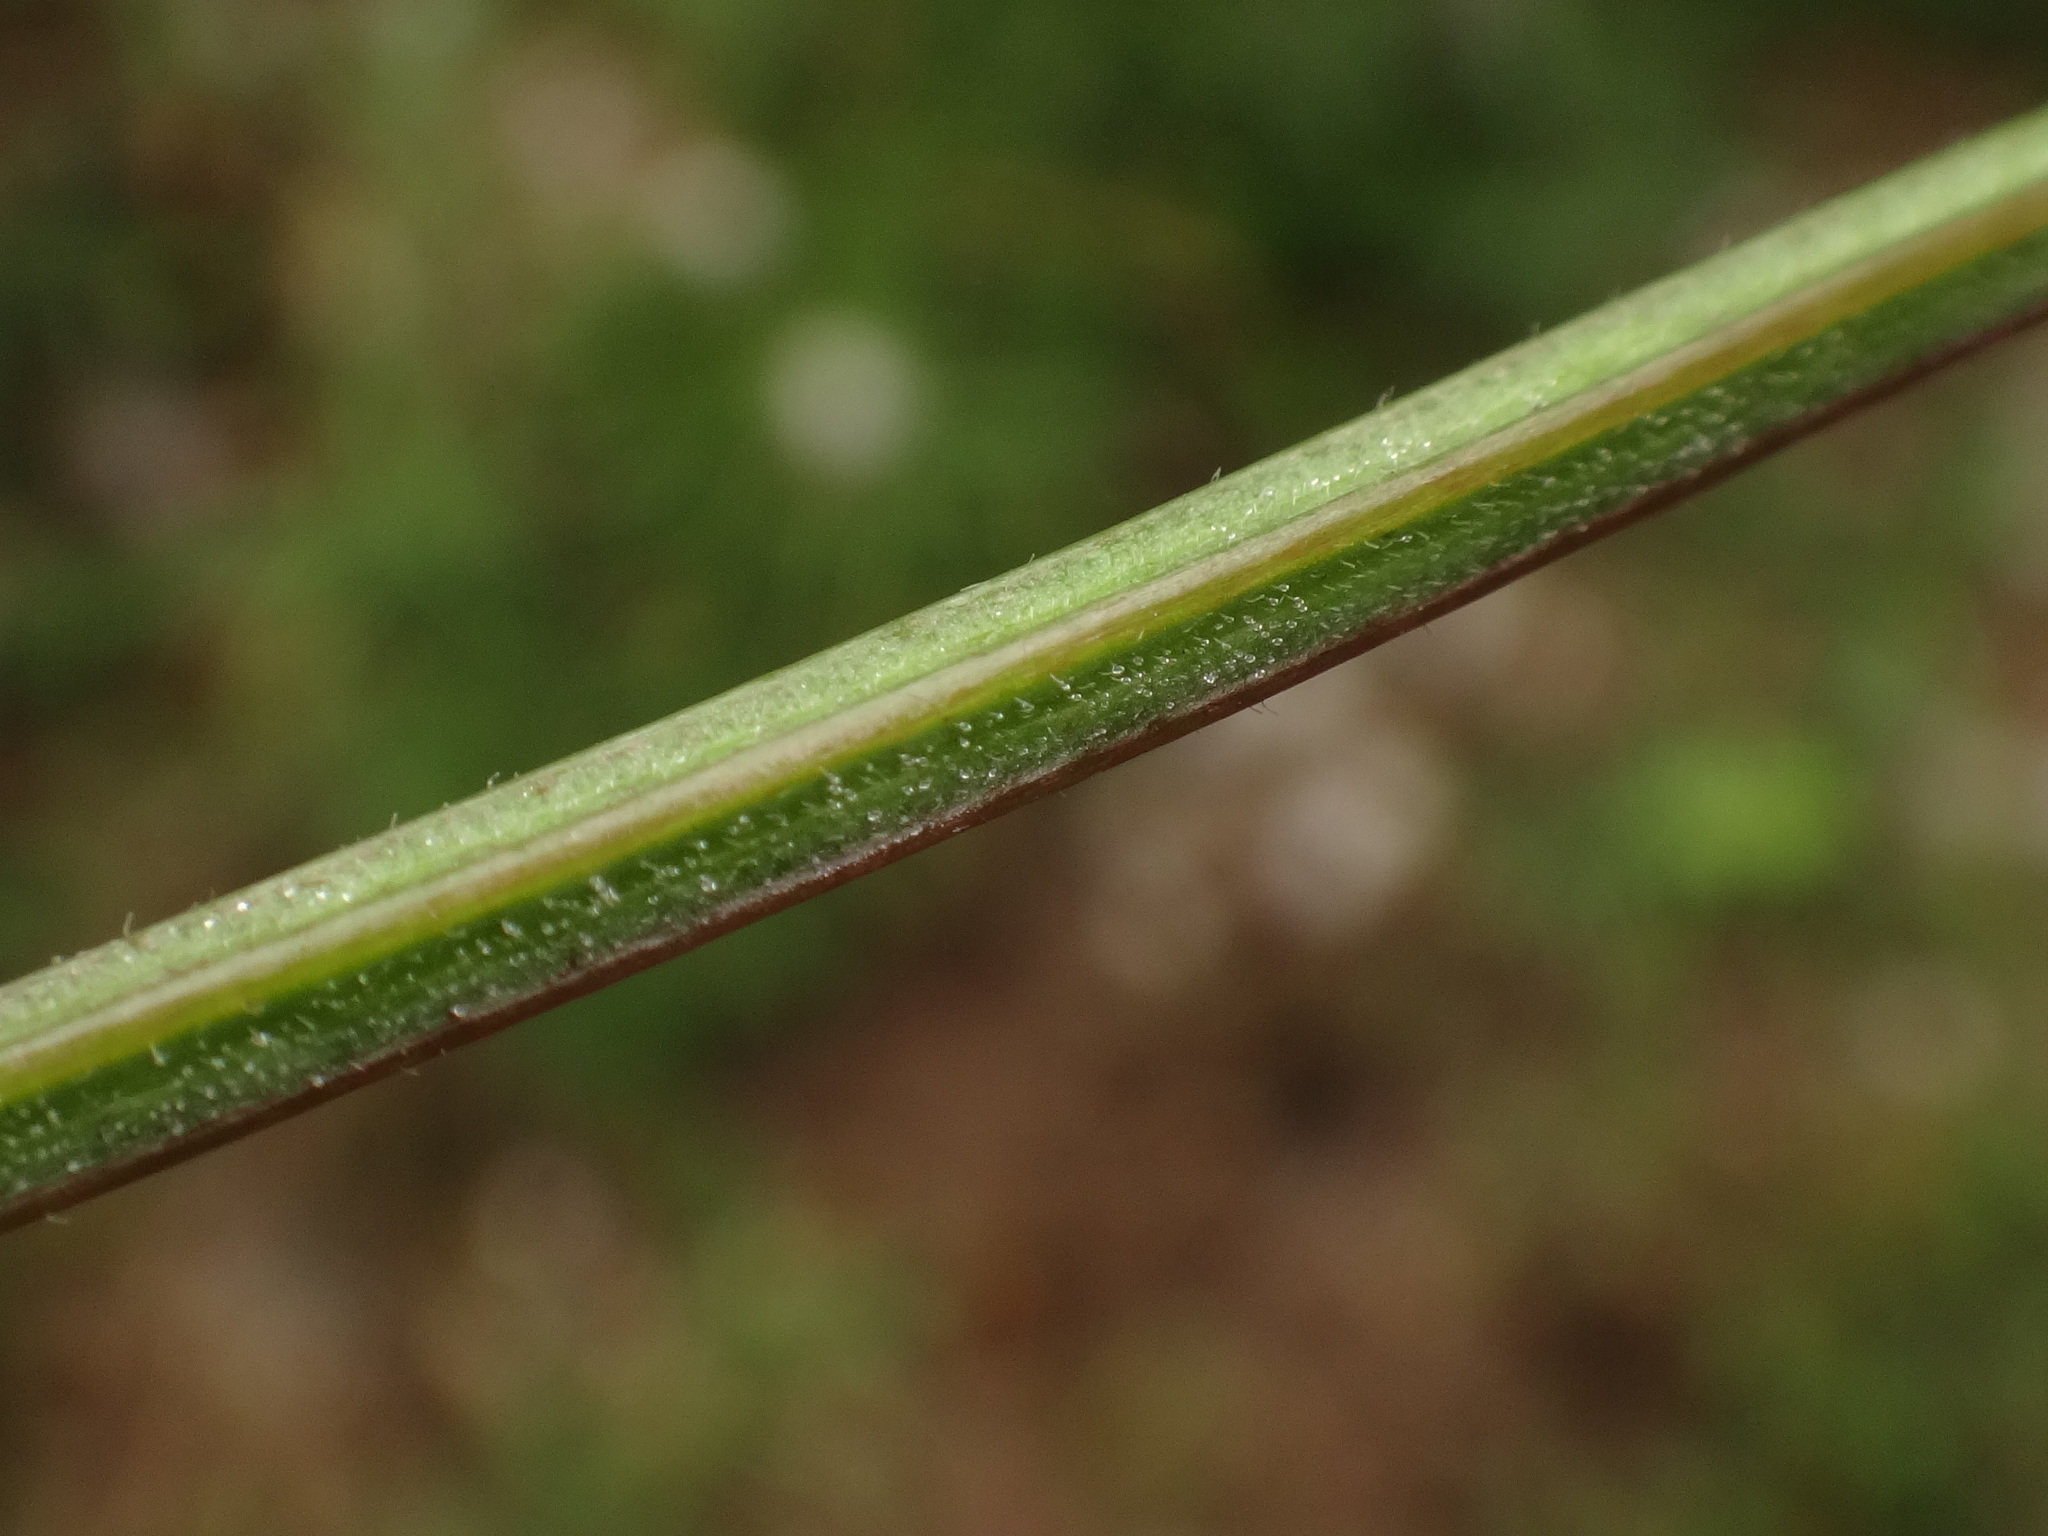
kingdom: Plantae
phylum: Tracheophyta
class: Magnoliopsida
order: Myrtales
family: Onagraceae
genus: Epilobium
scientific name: Epilobium parviflorum
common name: Hoary willowherb
